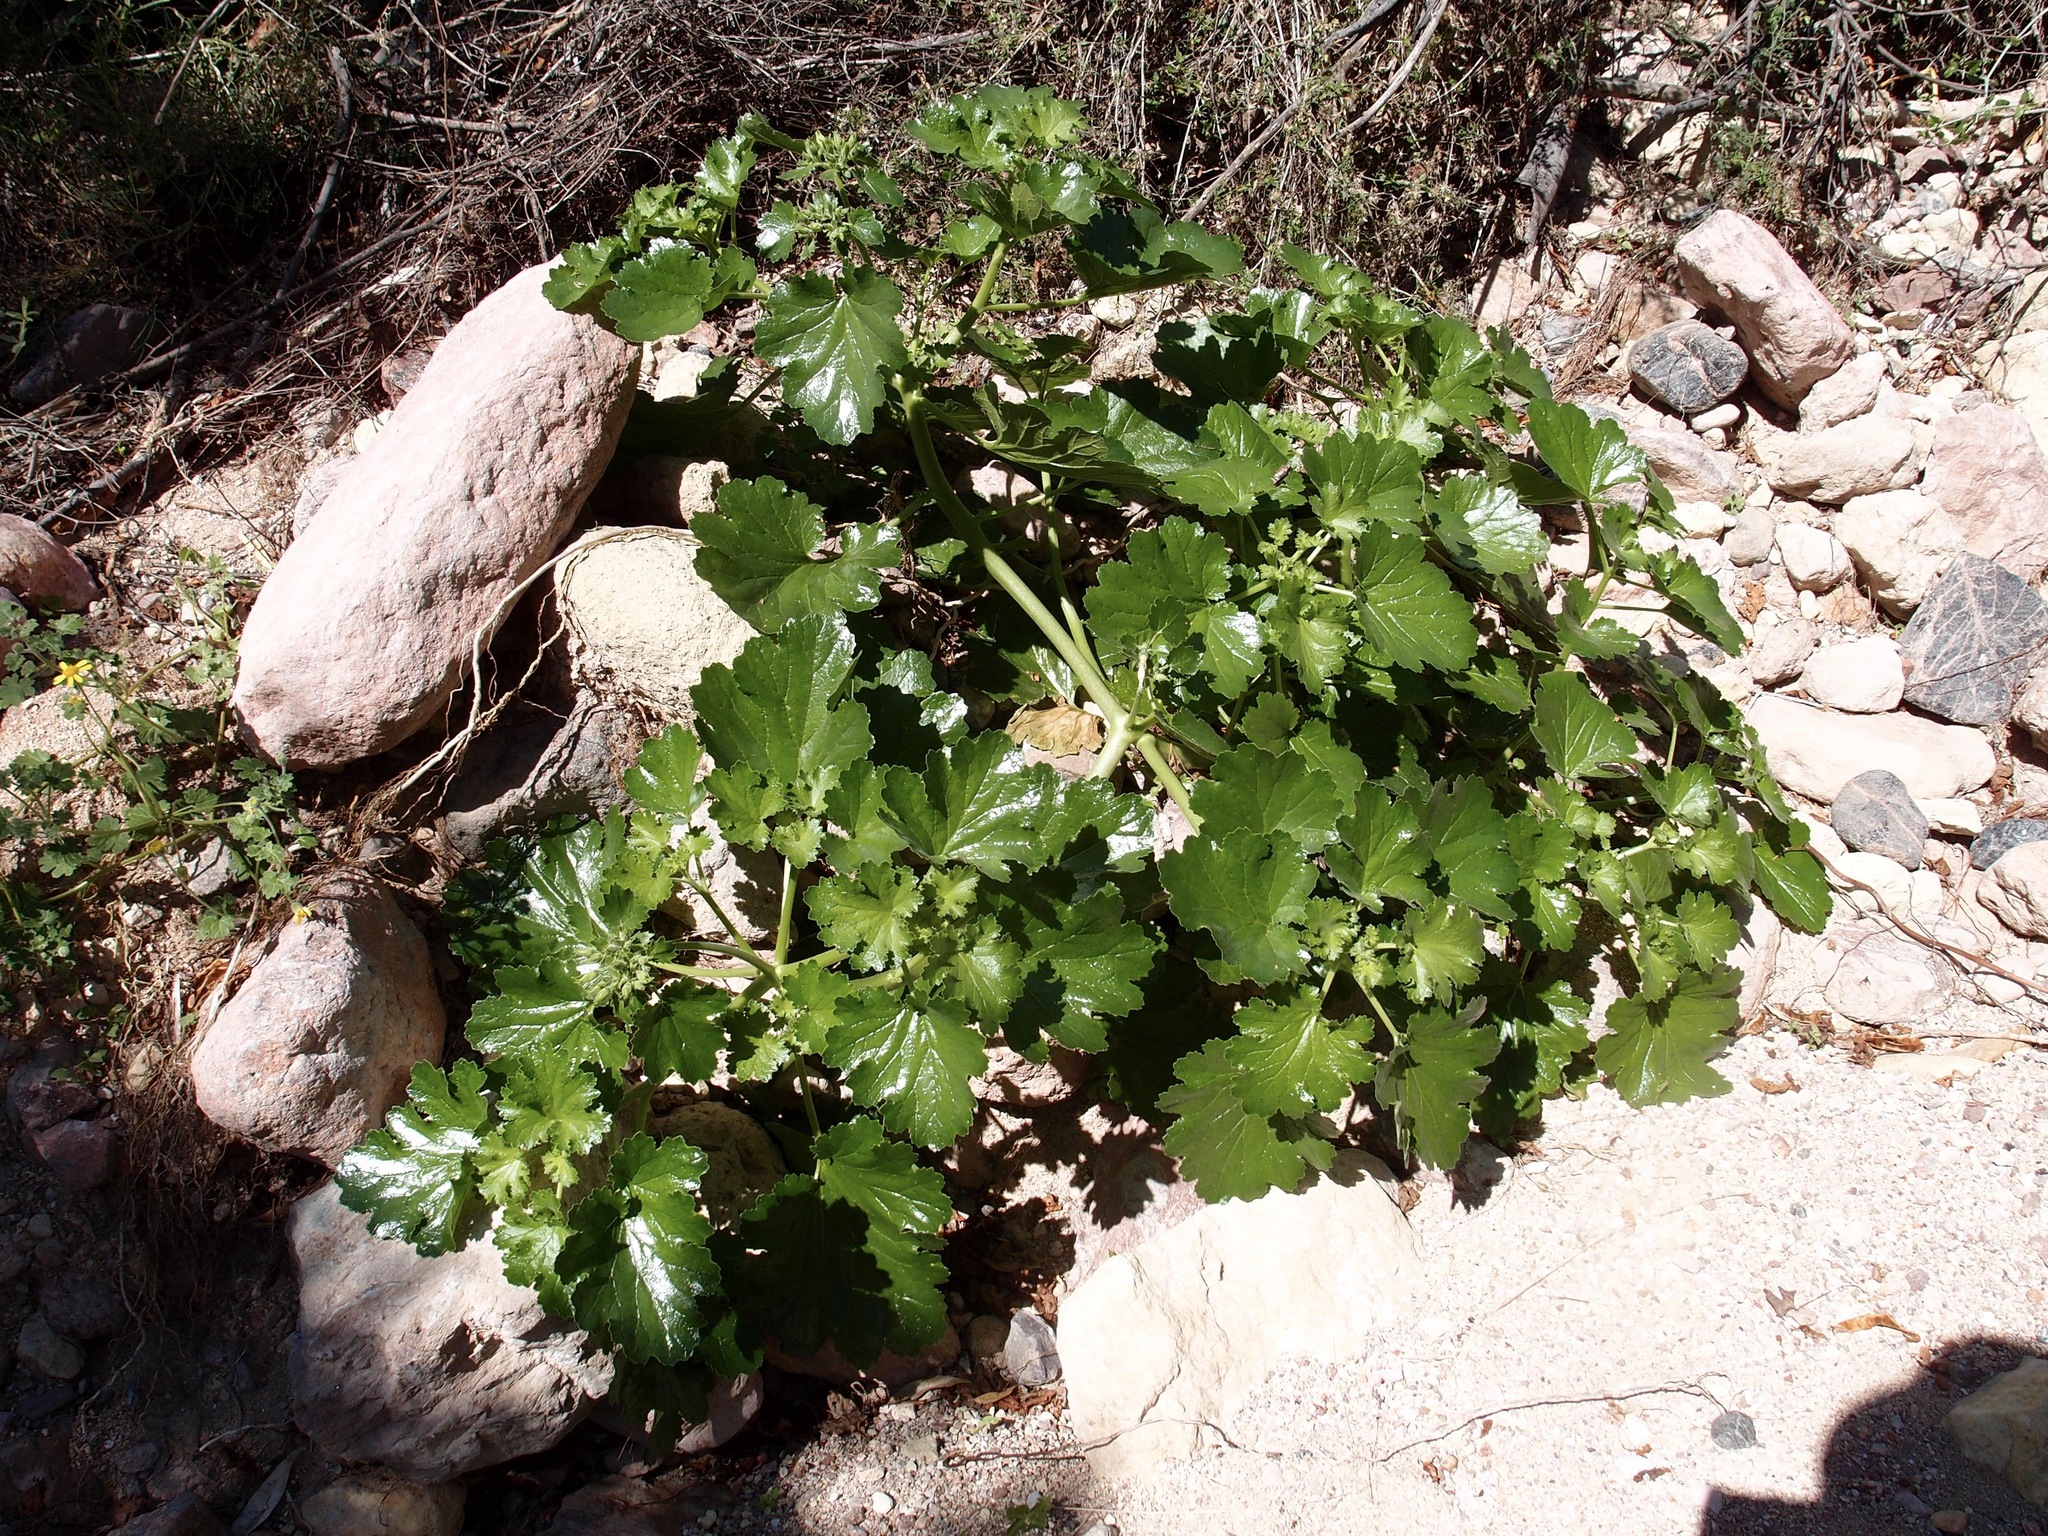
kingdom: Plantae
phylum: Tracheophyta
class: Magnoliopsida
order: Cornales
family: Loasaceae
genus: Eucnide
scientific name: Eucnide rupestris
